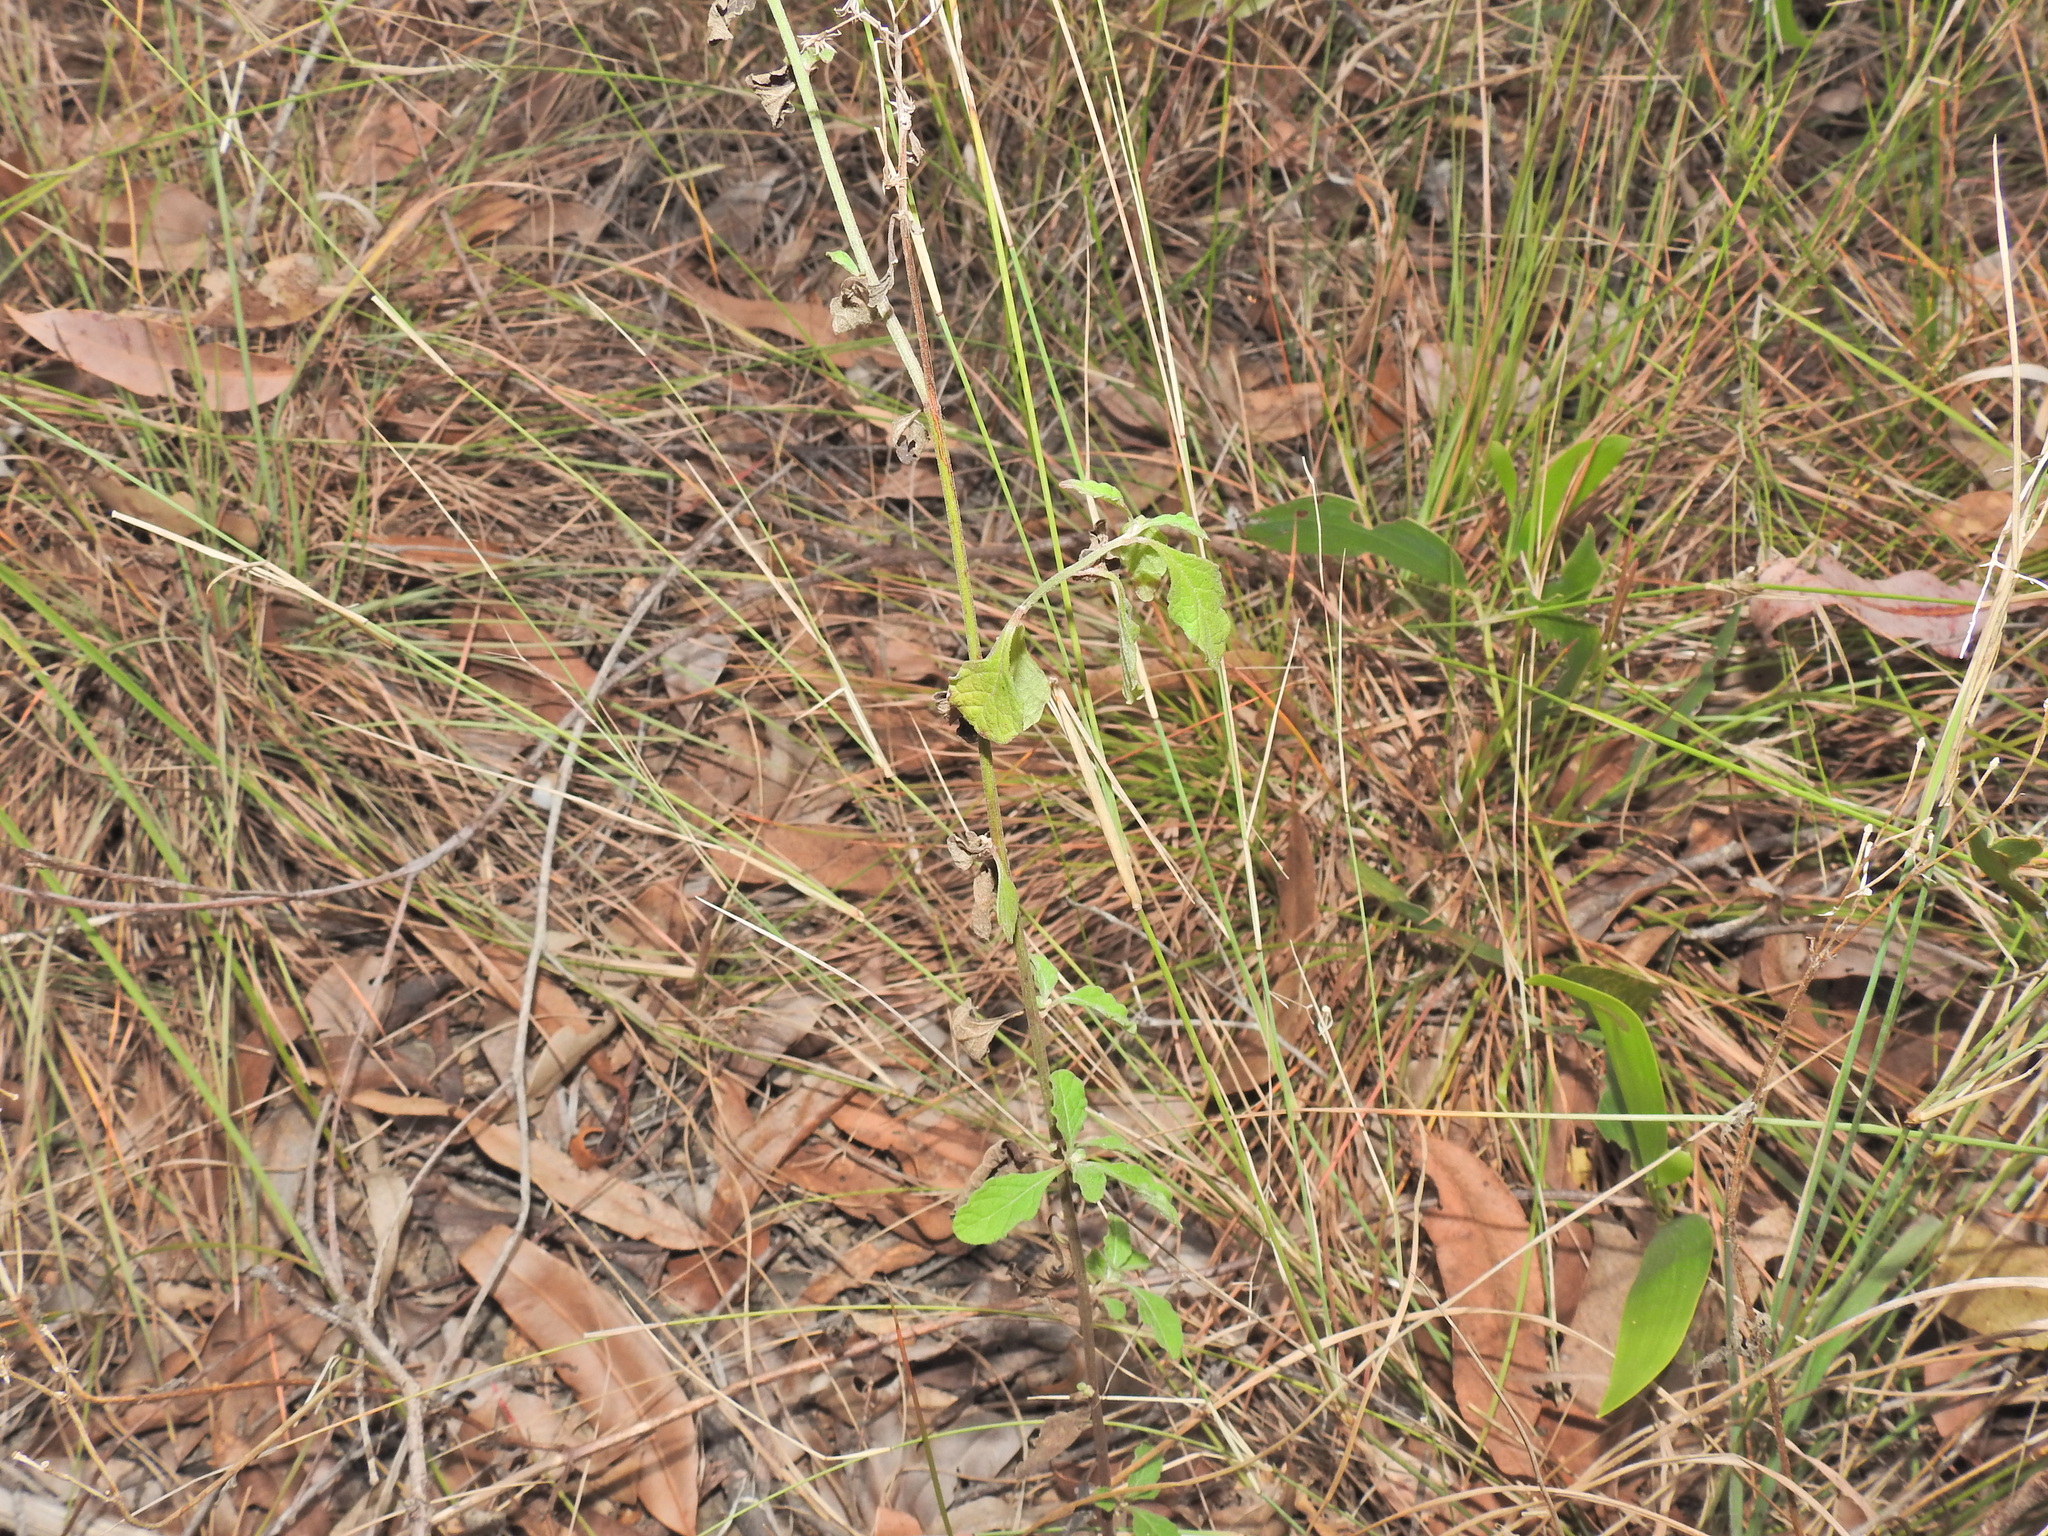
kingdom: Plantae
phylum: Tracheophyta
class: Magnoliopsida
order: Asterales
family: Asteraceae
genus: Cyanthillium
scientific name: Cyanthillium cinereum
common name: Little ironweed
